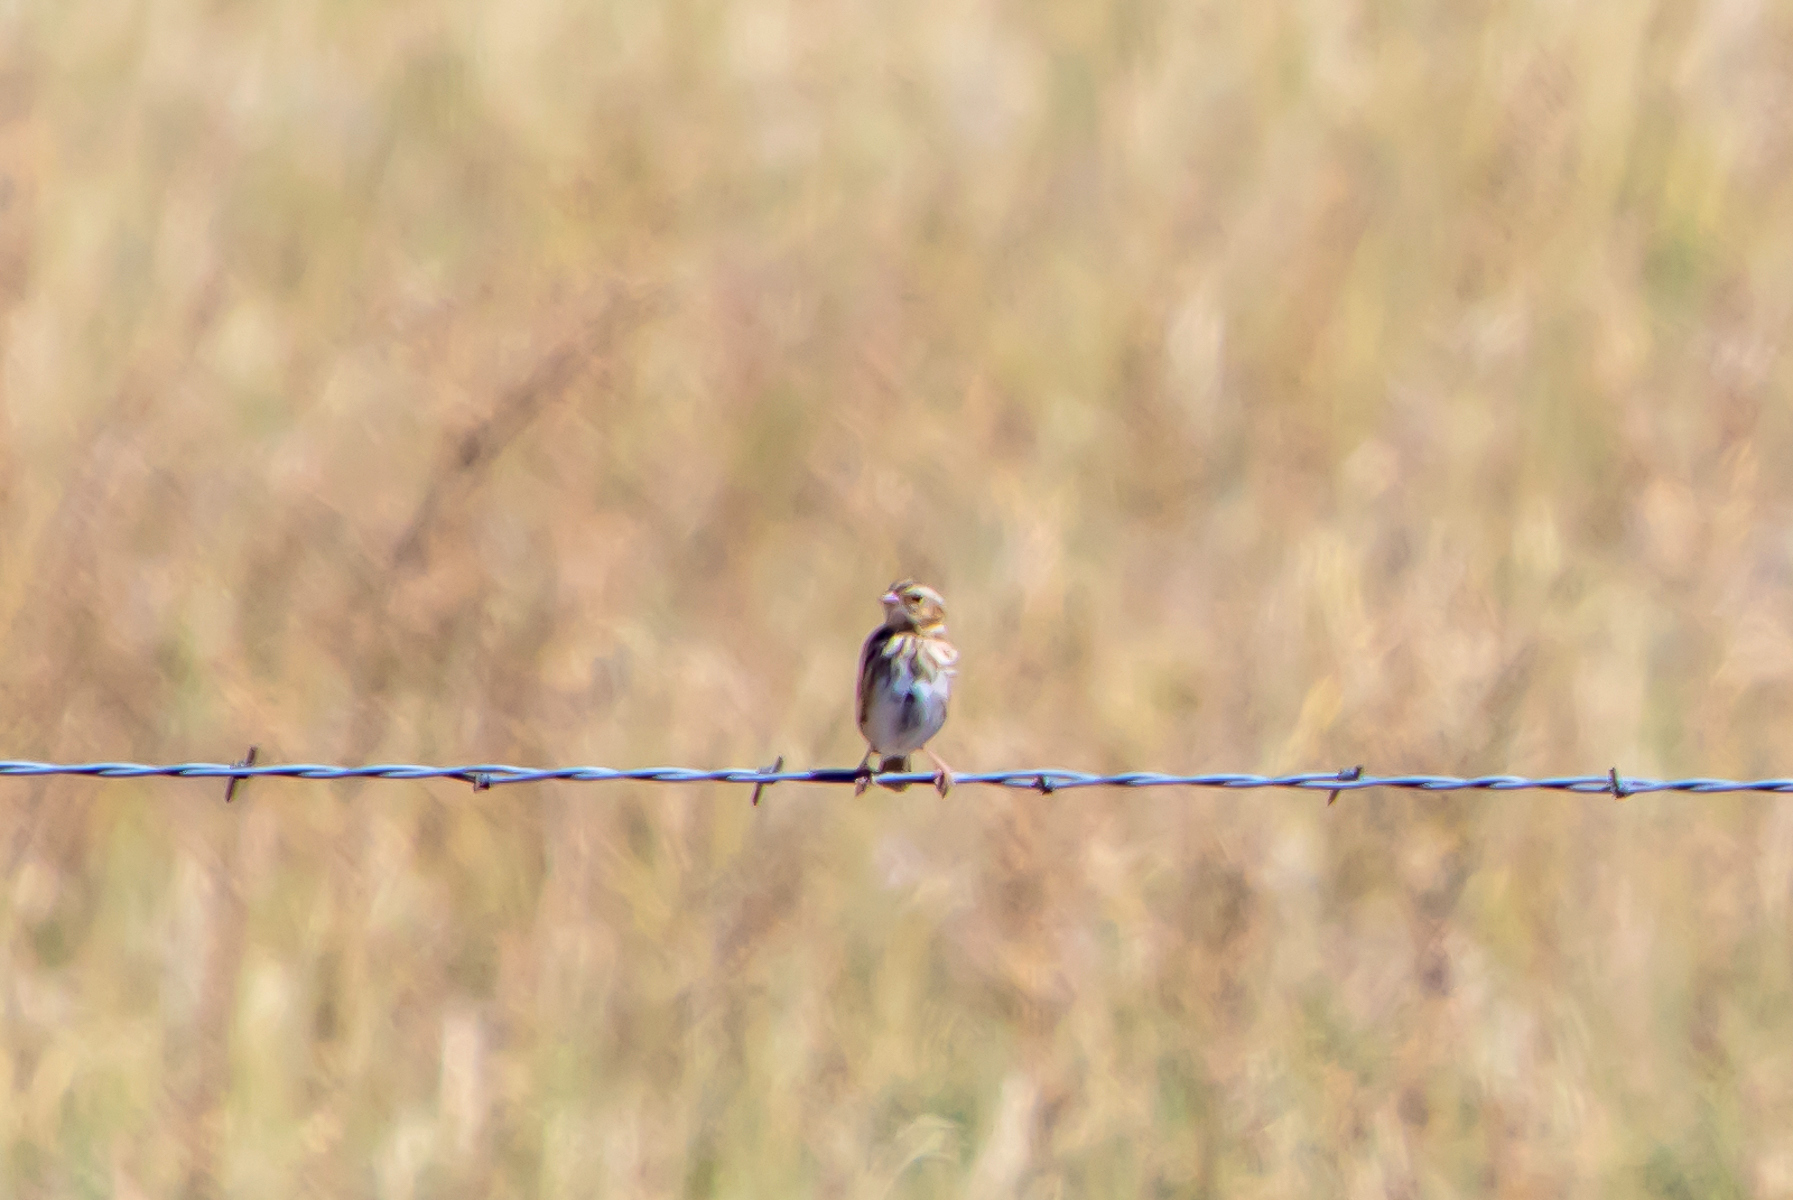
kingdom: Animalia
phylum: Chordata
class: Aves
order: Passeriformes
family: Passerellidae
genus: Melospiza
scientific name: Melospiza melodia
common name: Song sparrow
